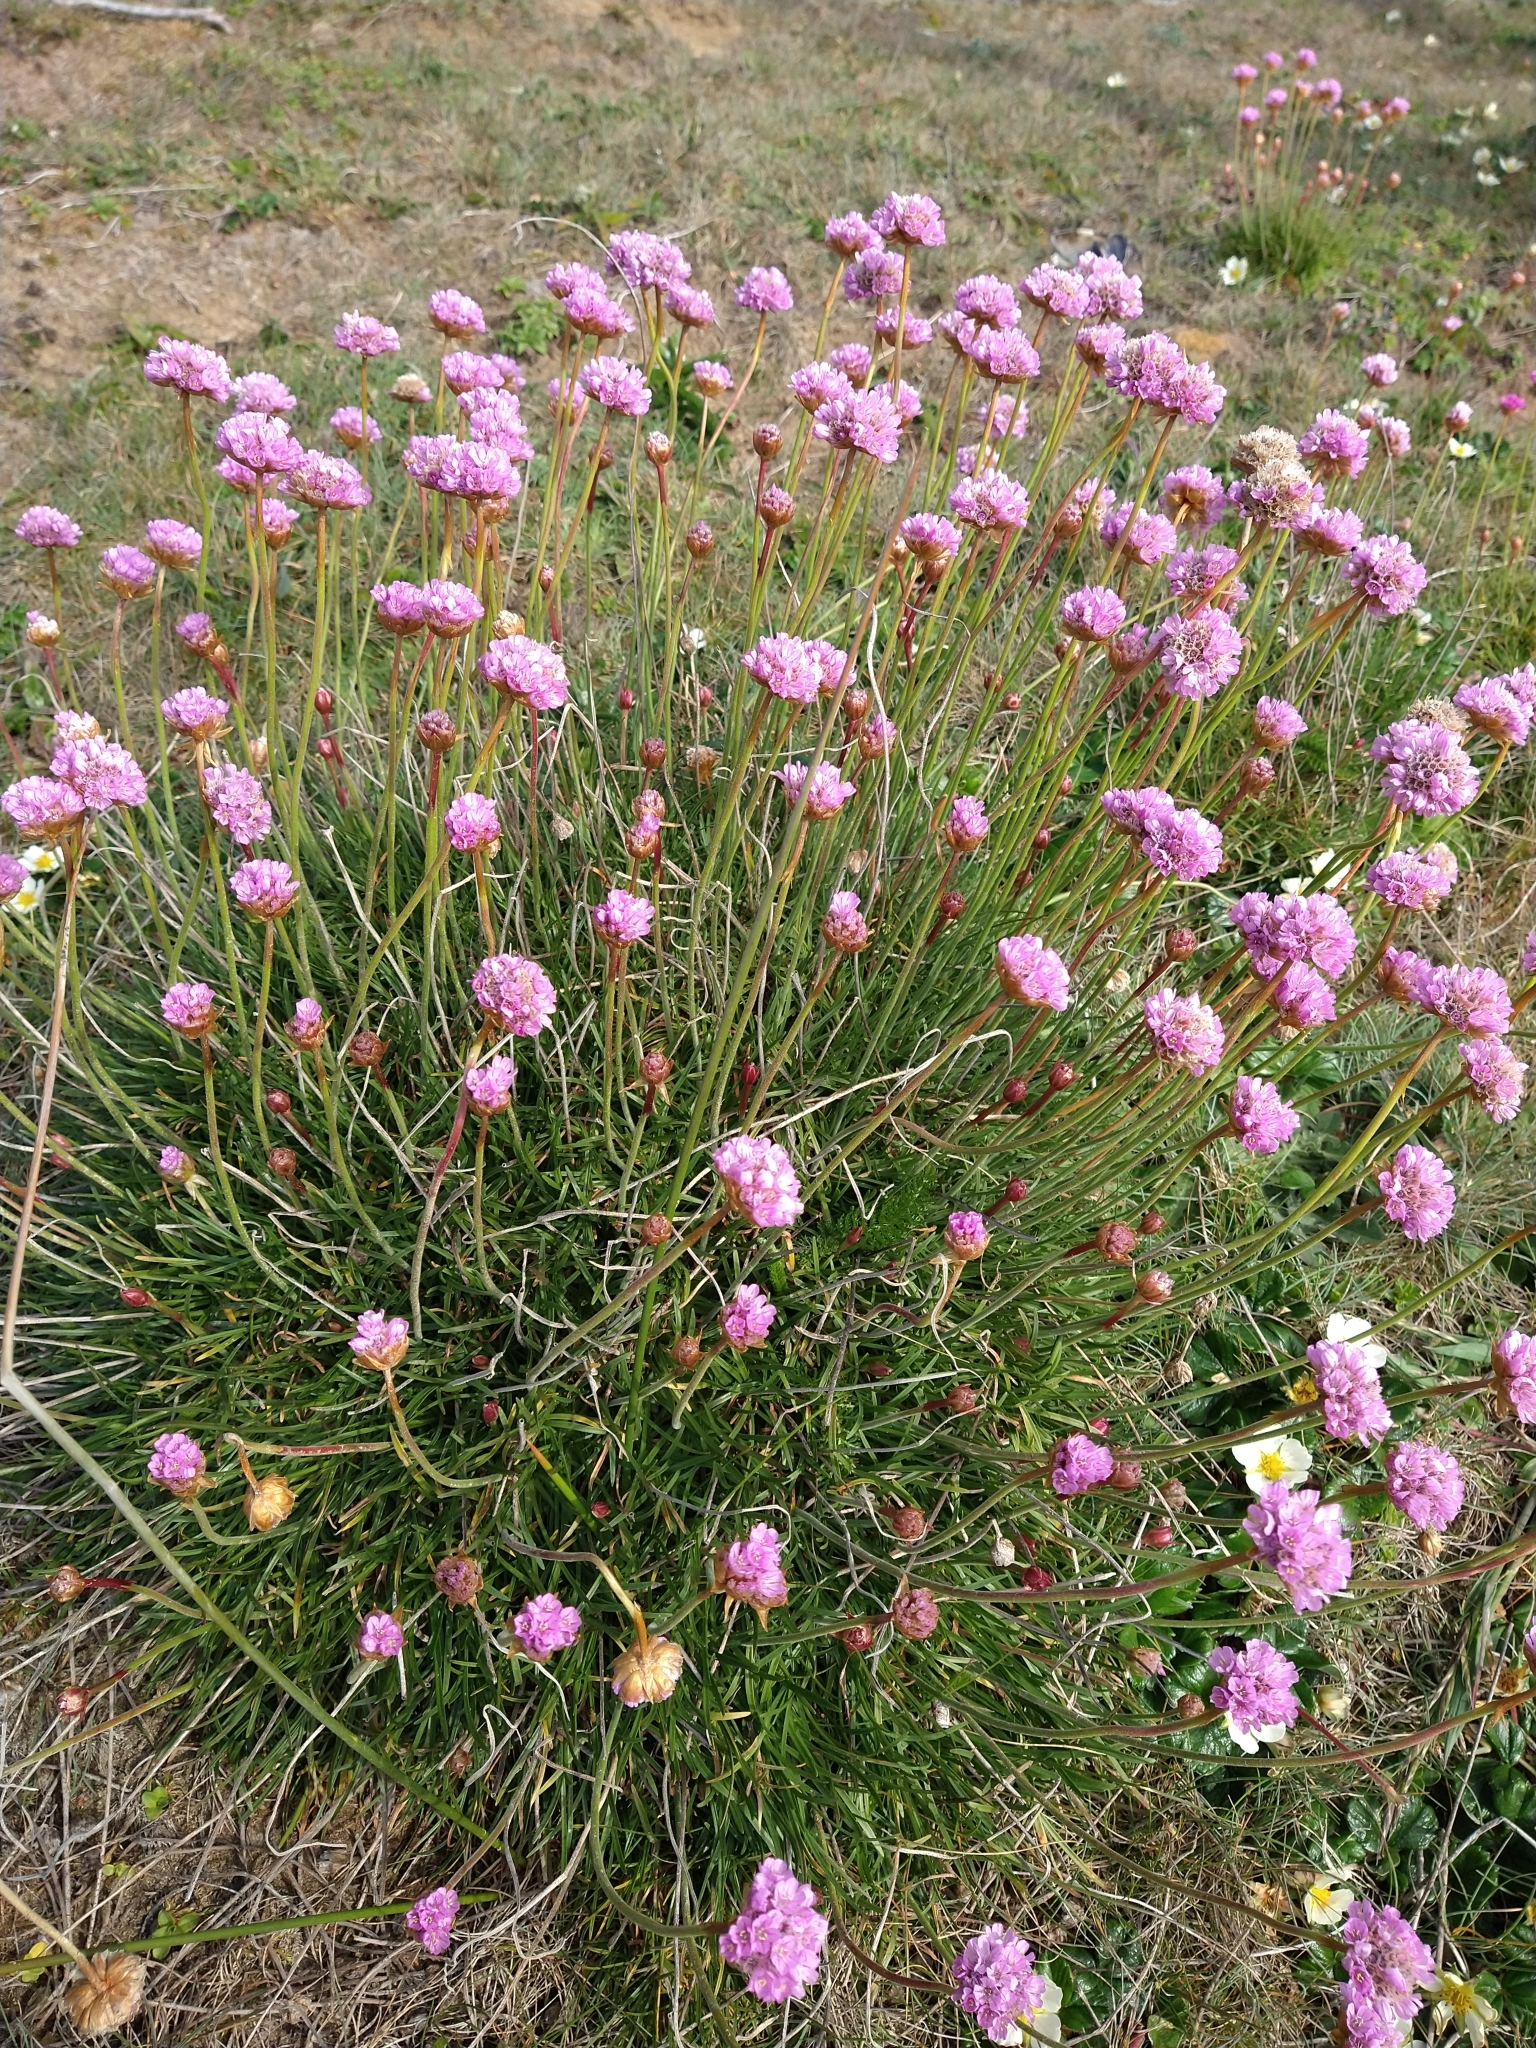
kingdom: Plantae
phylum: Tracheophyta
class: Magnoliopsida
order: Caryophyllales
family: Plumbaginaceae
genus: Armeria
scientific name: Armeria maritima
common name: Thrift
